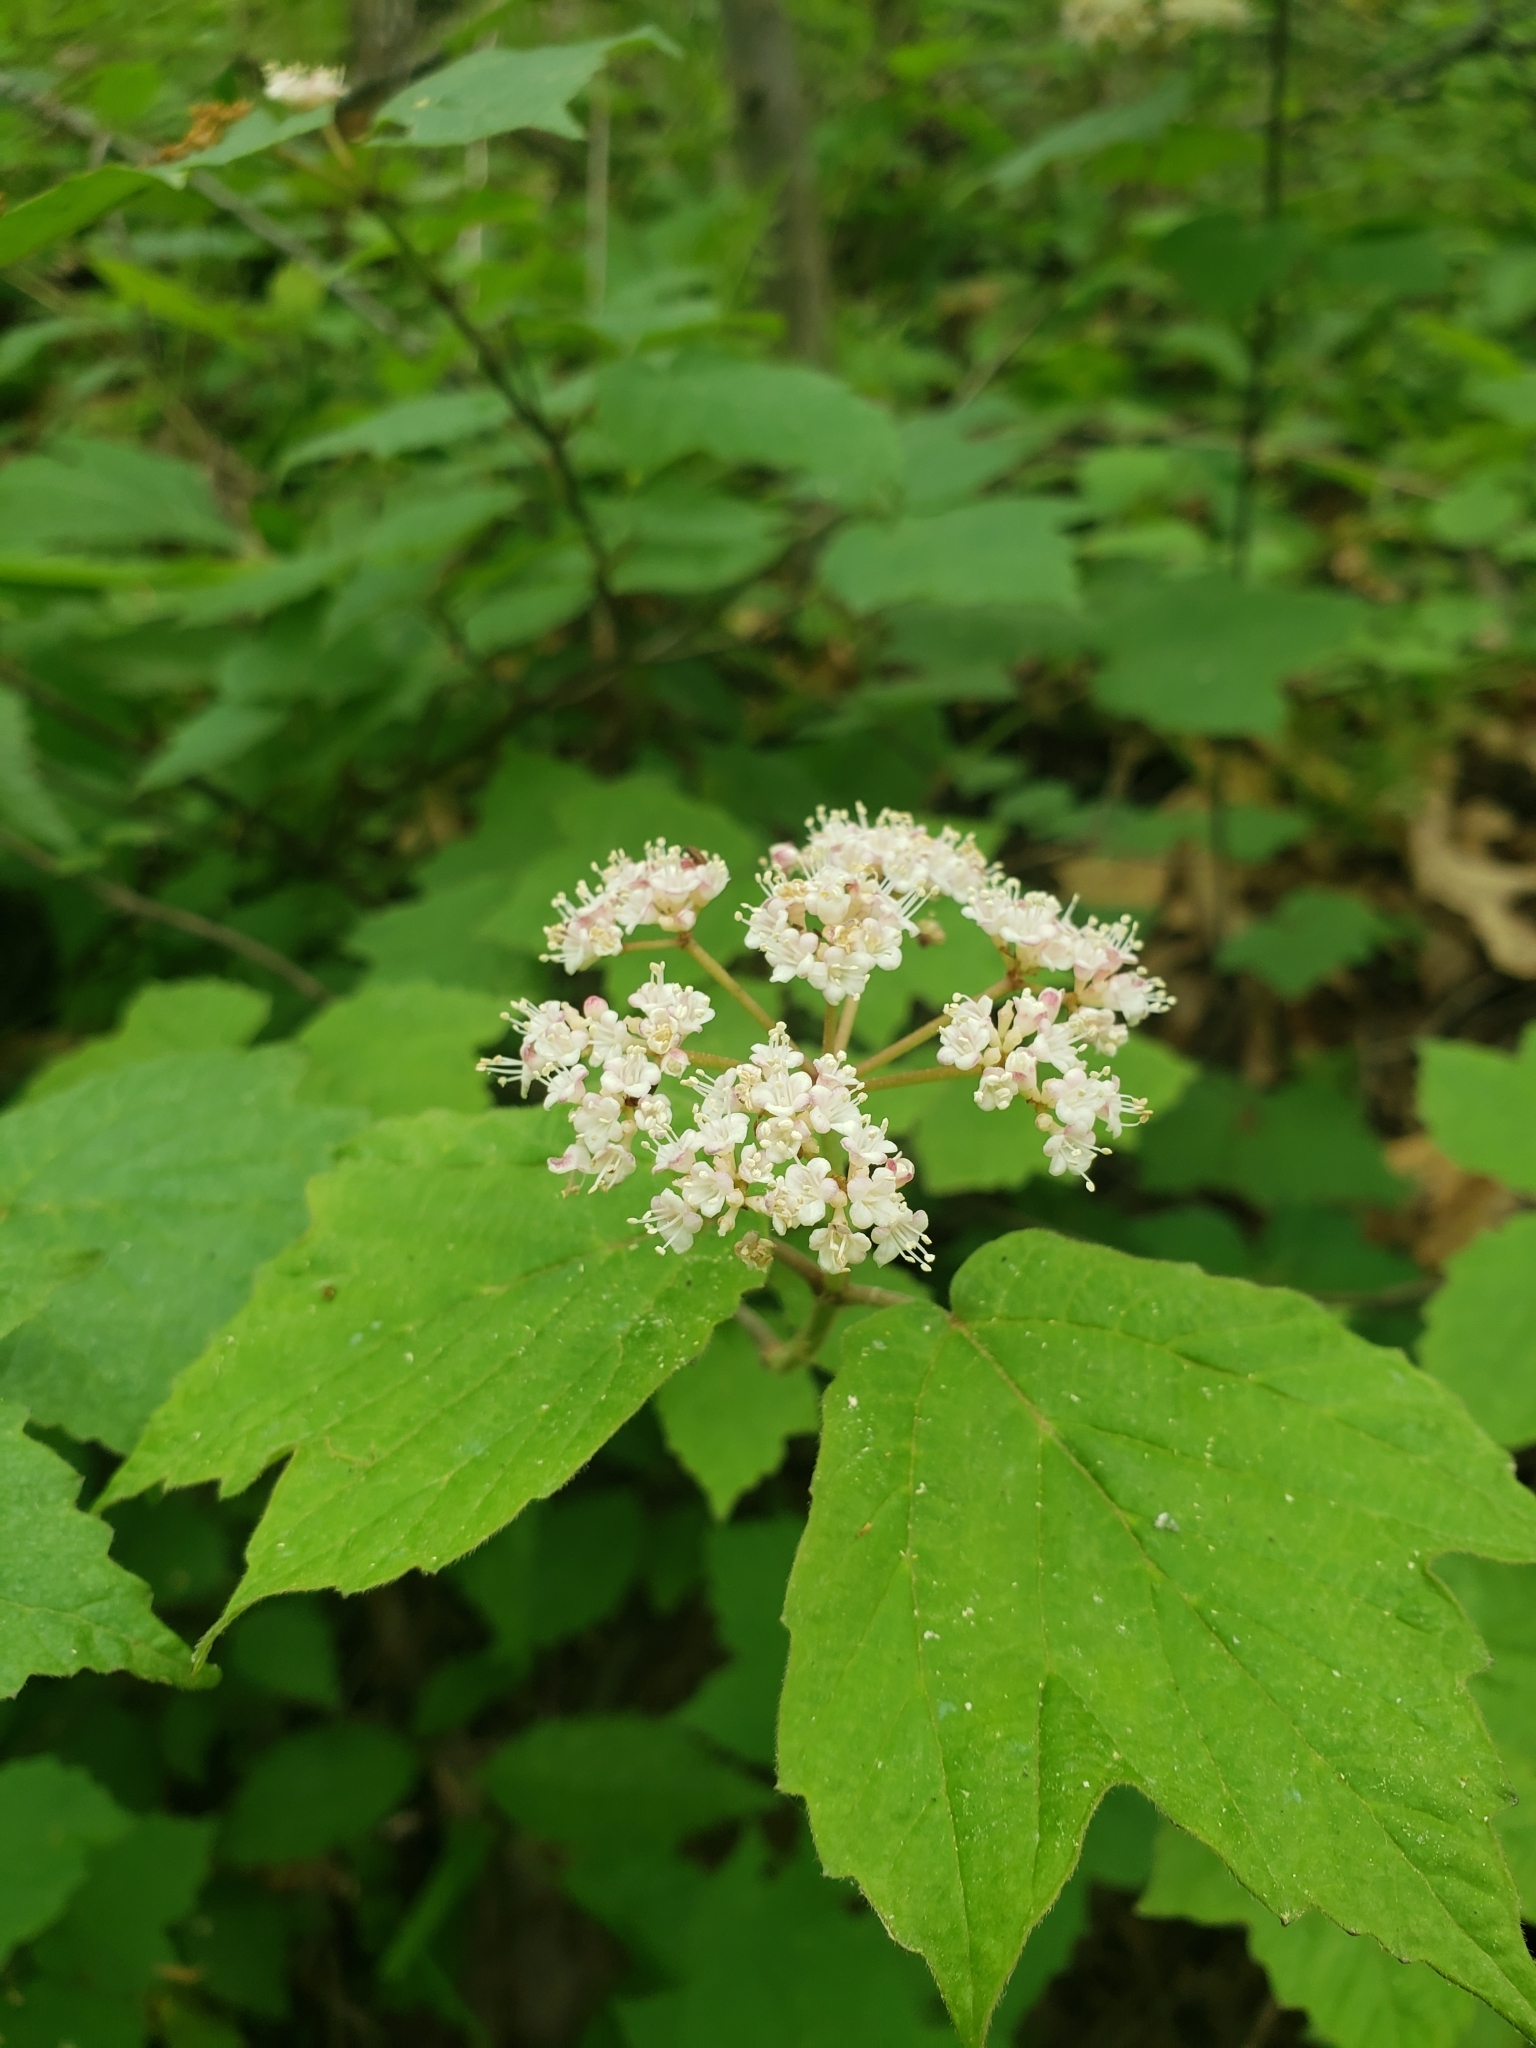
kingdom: Plantae
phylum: Tracheophyta
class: Magnoliopsida
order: Dipsacales
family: Viburnaceae
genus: Viburnum
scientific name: Viburnum acerifolium
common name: Dockmackie
